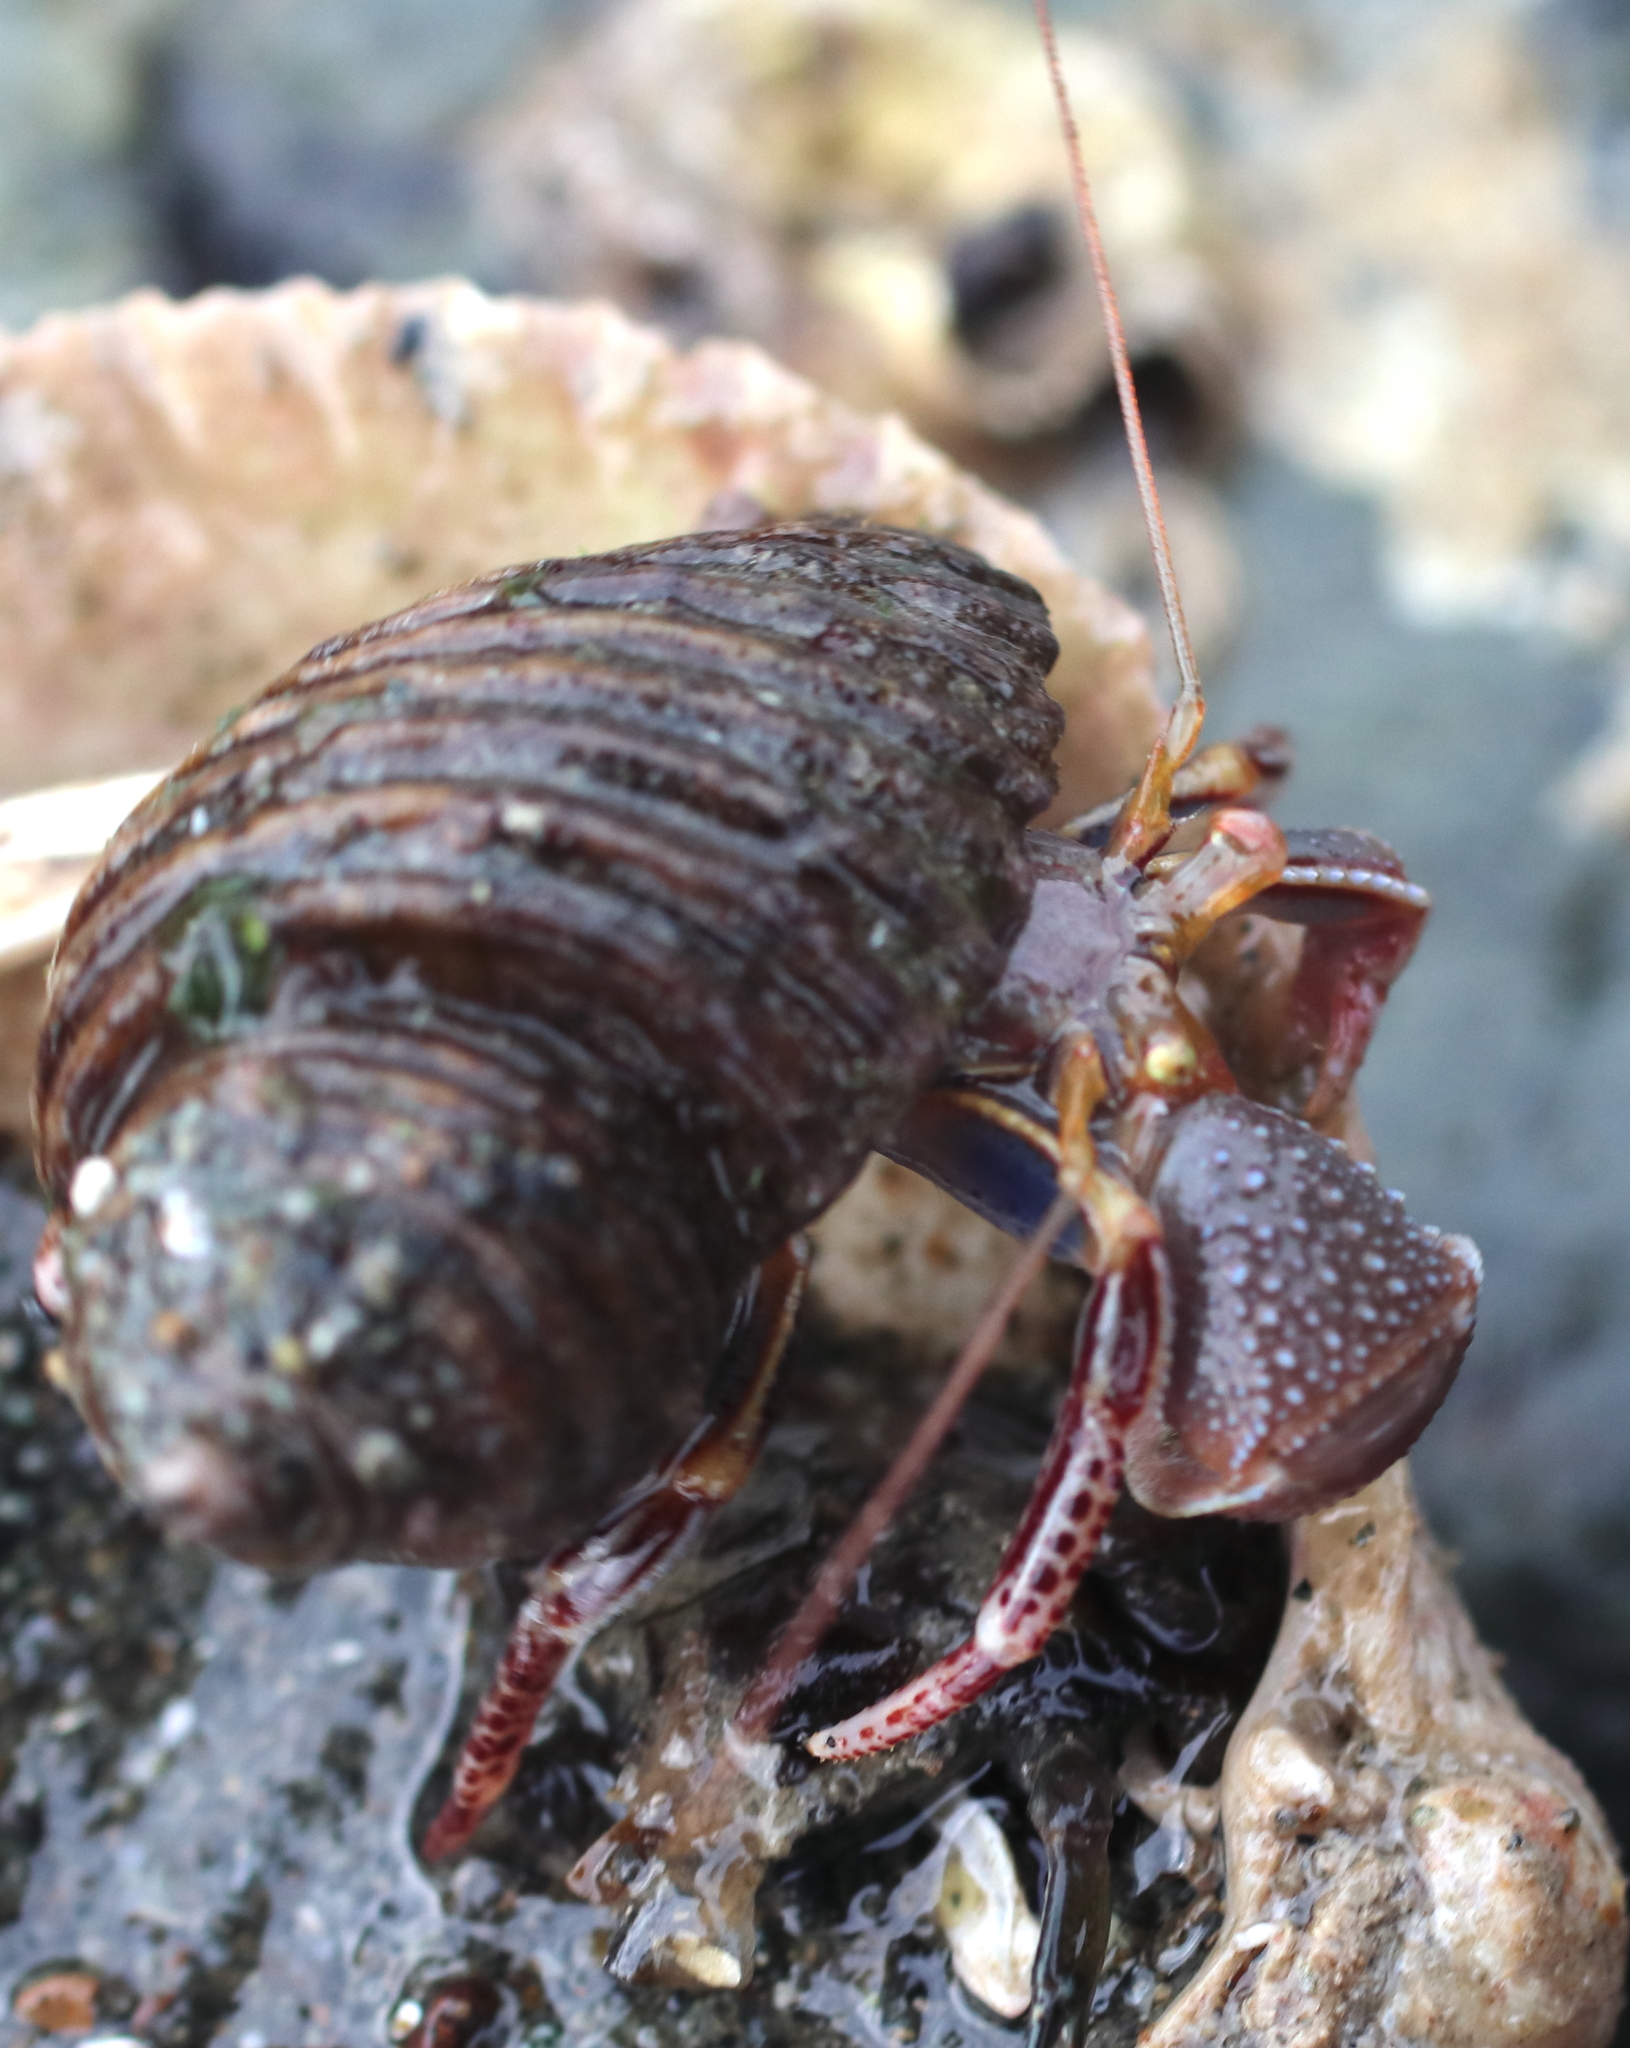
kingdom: Animalia
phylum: Arthropoda
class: Malacostraca
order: Decapoda
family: Paguridae
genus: Elassochirus
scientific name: Elassochirus tenuimanus
